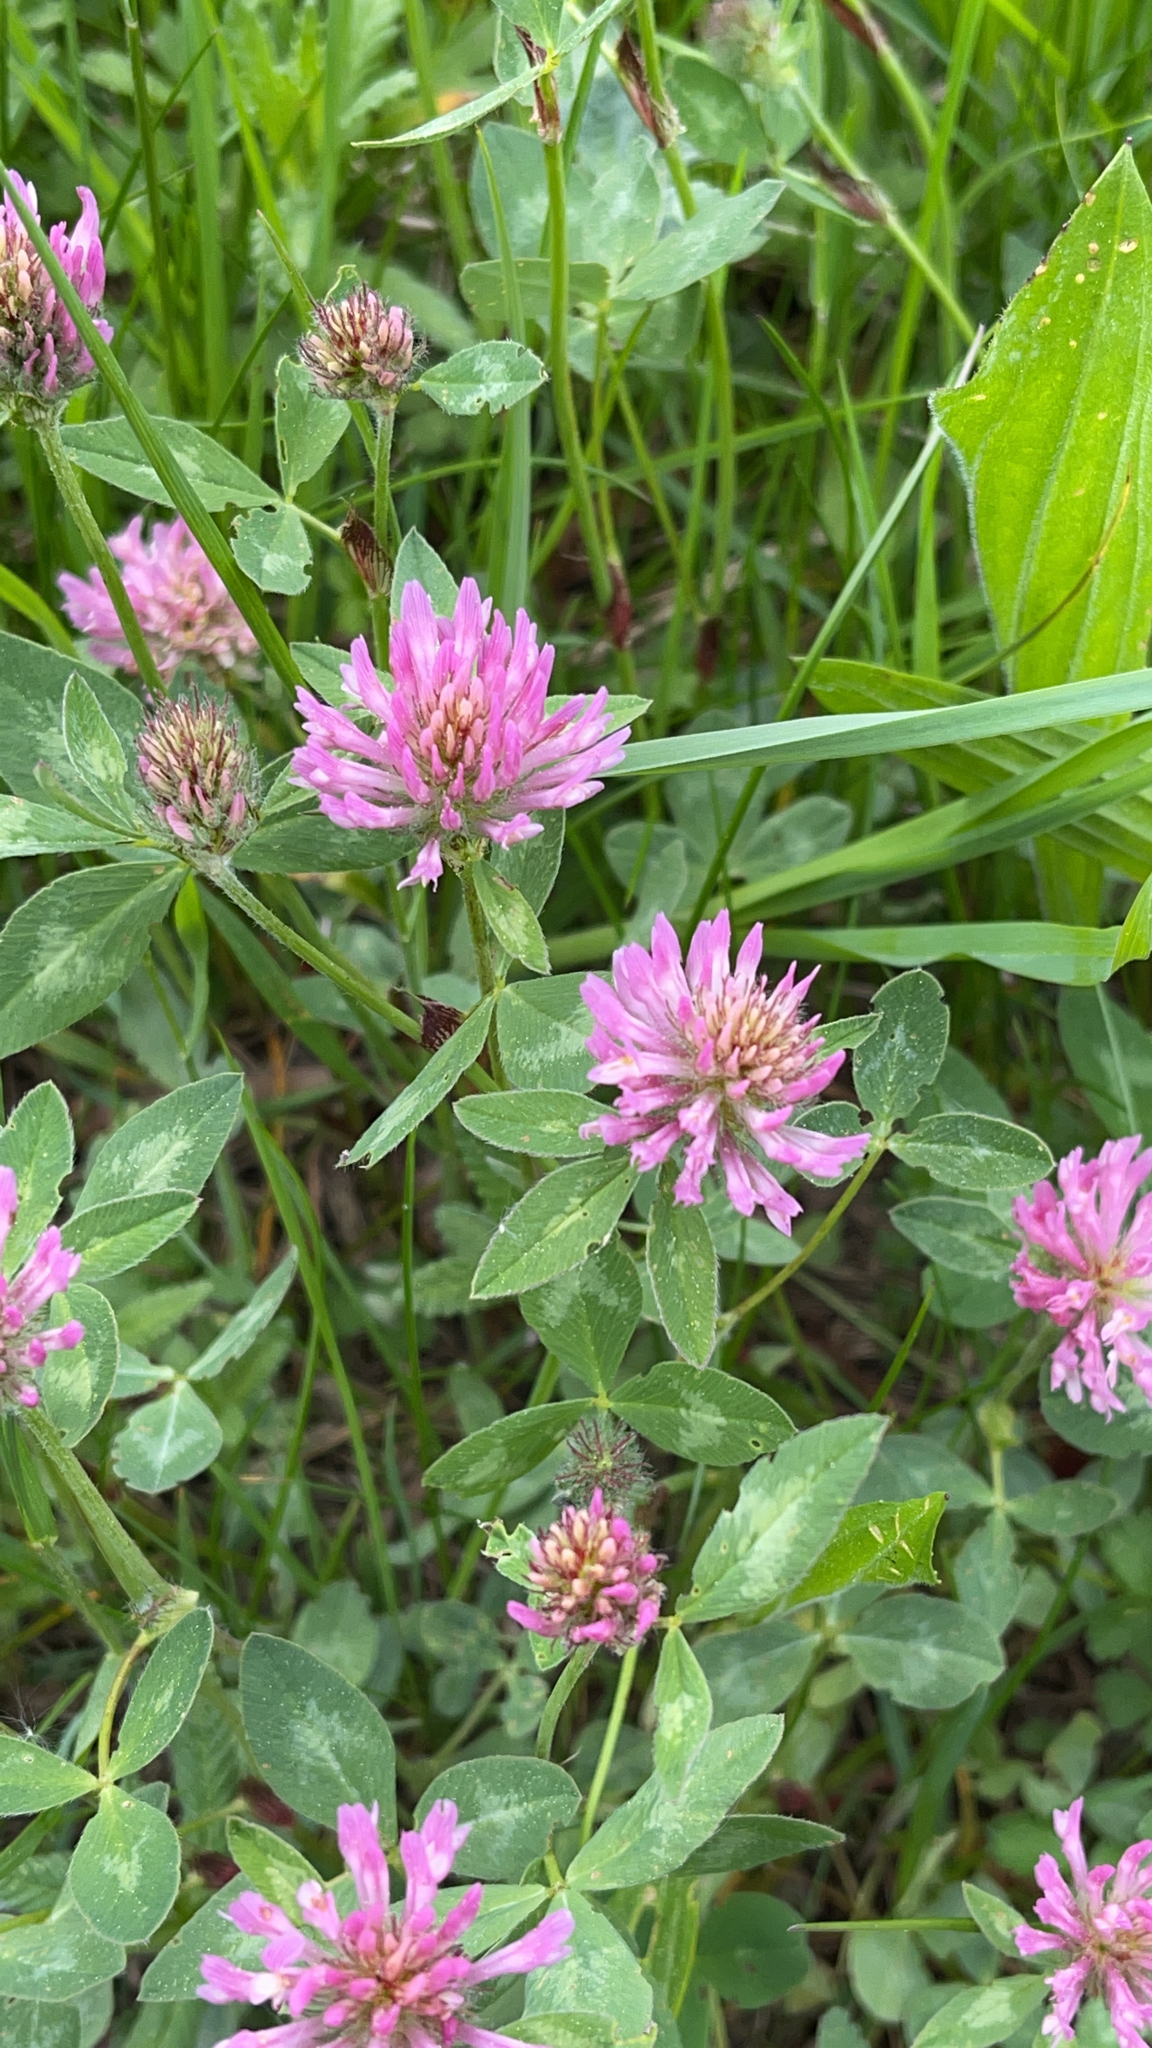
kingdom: Plantae
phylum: Tracheophyta
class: Magnoliopsida
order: Fabales
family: Fabaceae
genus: Trifolium
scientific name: Trifolium pratense
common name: Red clover
